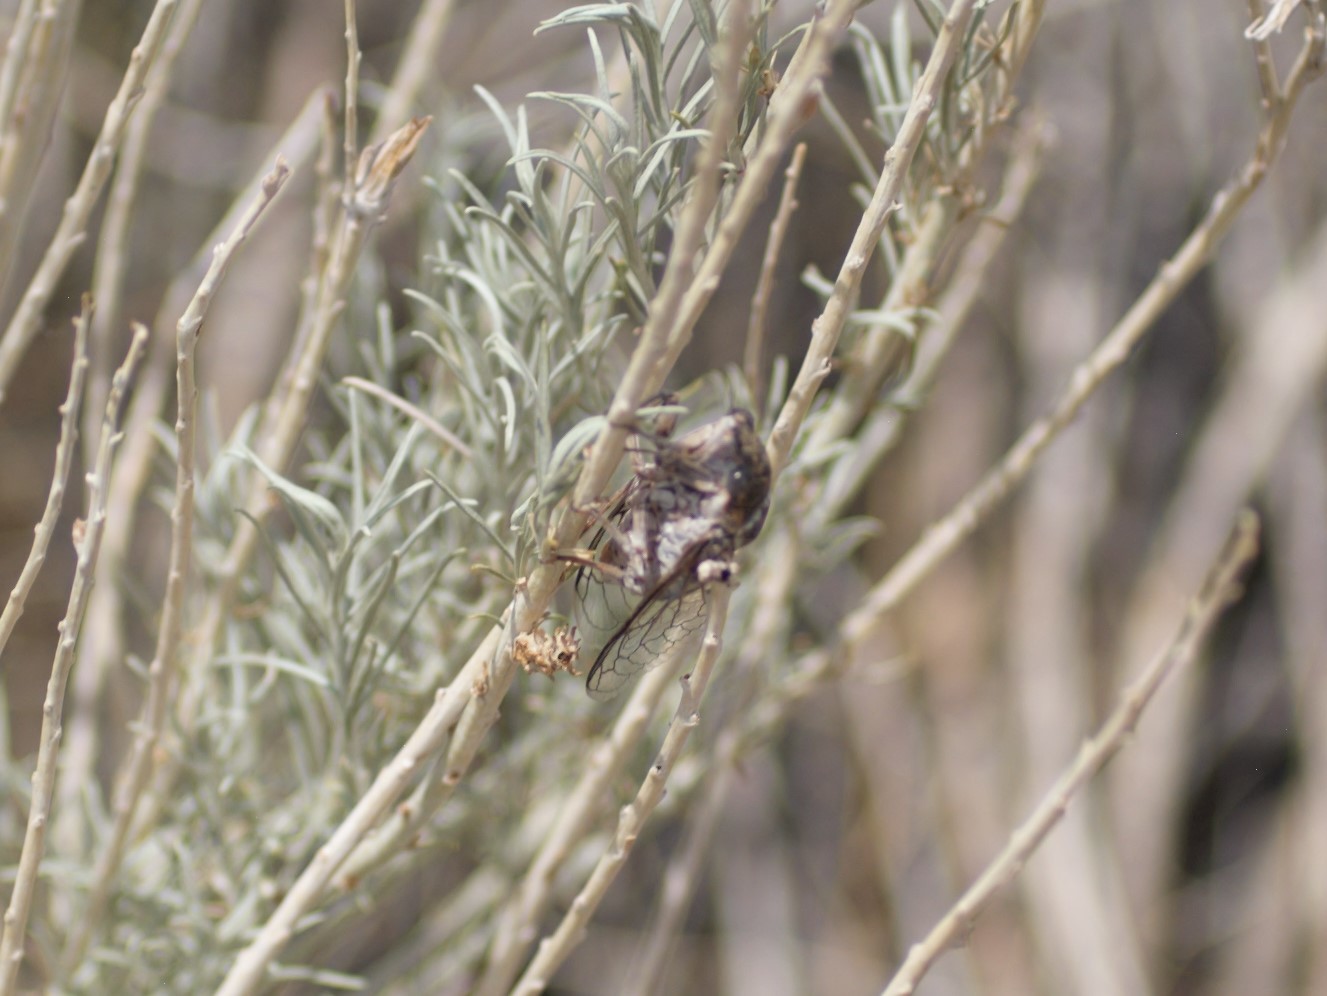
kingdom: Animalia
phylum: Arthropoda
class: Insecta
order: Hemiptera
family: Cicadidae
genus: Cacama
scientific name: Cacama valvata
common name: Cactus dodger
